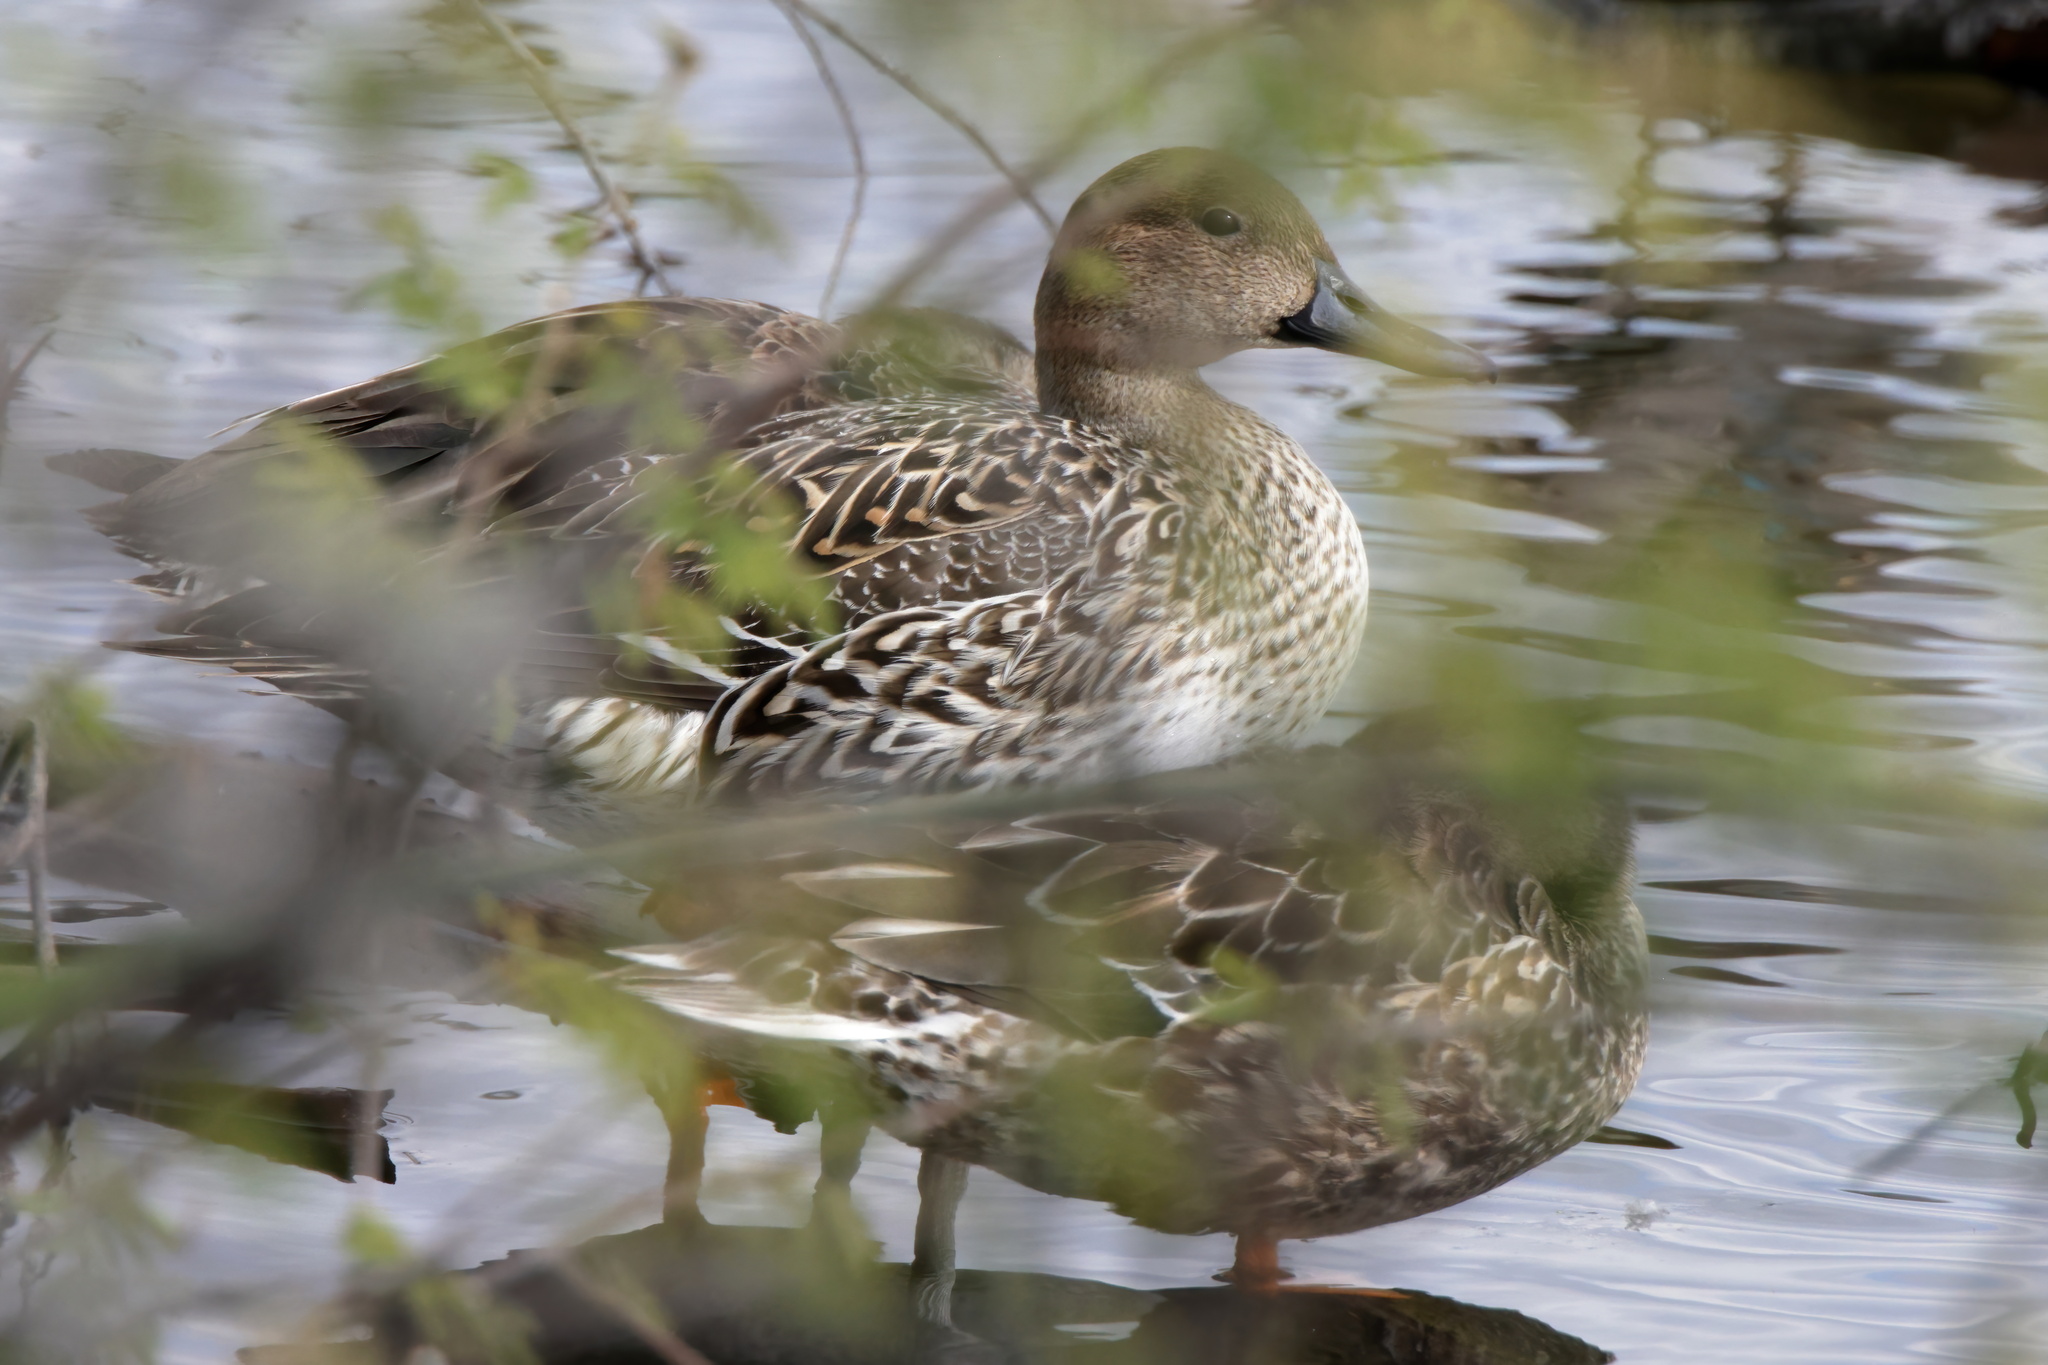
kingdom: Animalia
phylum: Chordata
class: Aves
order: Anseriformes
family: Anatidae
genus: Anas
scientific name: Anas acuta
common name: Northern pintail
